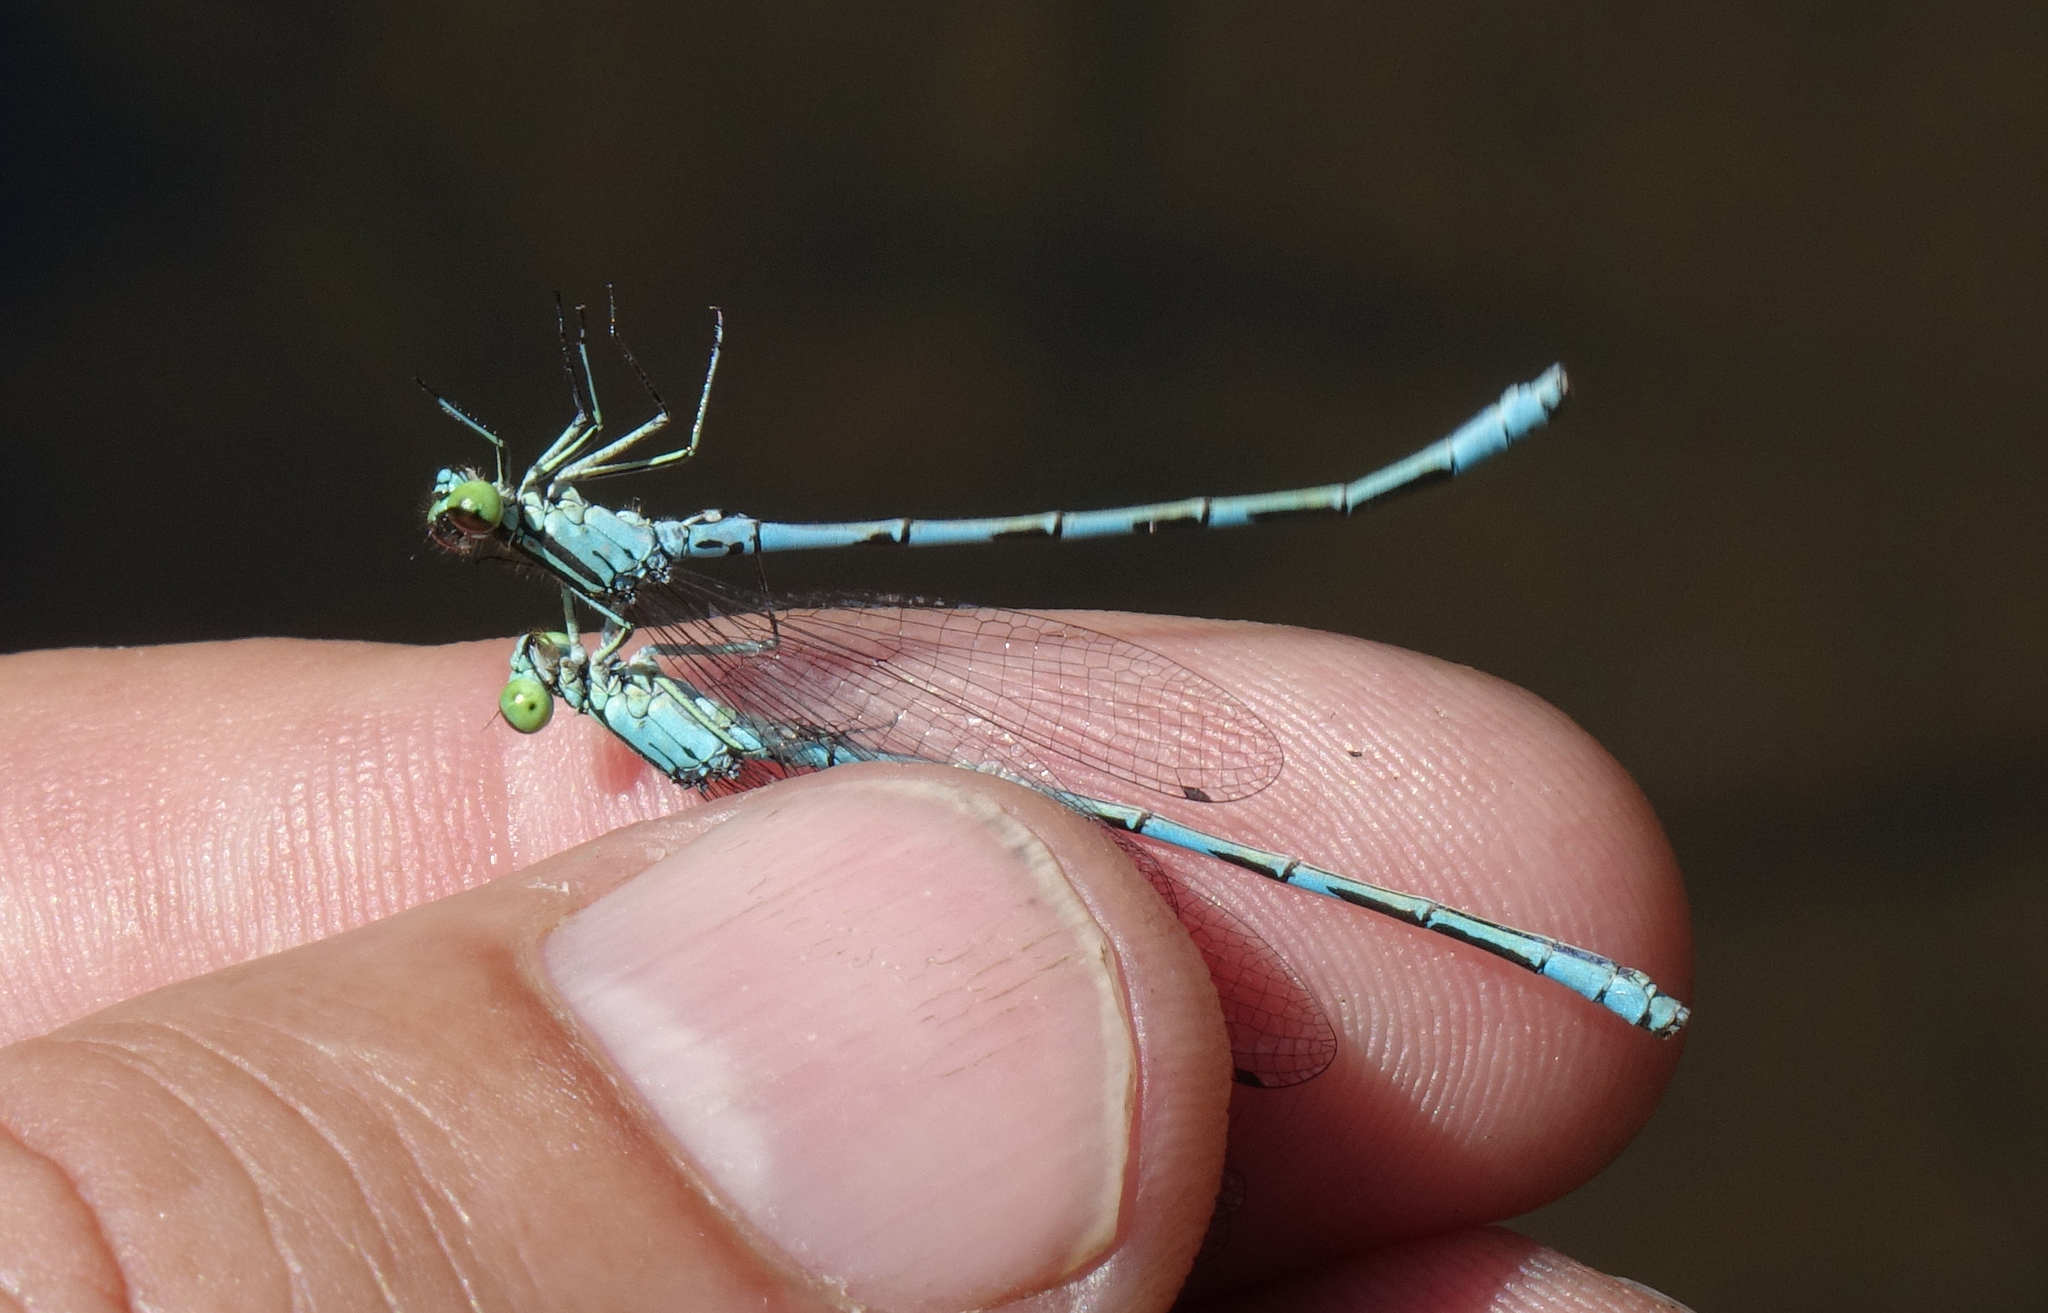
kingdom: Animalia
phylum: Arthropoda
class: Insecta
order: Odonata
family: Coenagrionidae
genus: Coenagrion
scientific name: Coenagrion hastulatum
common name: Spearhead bluet
